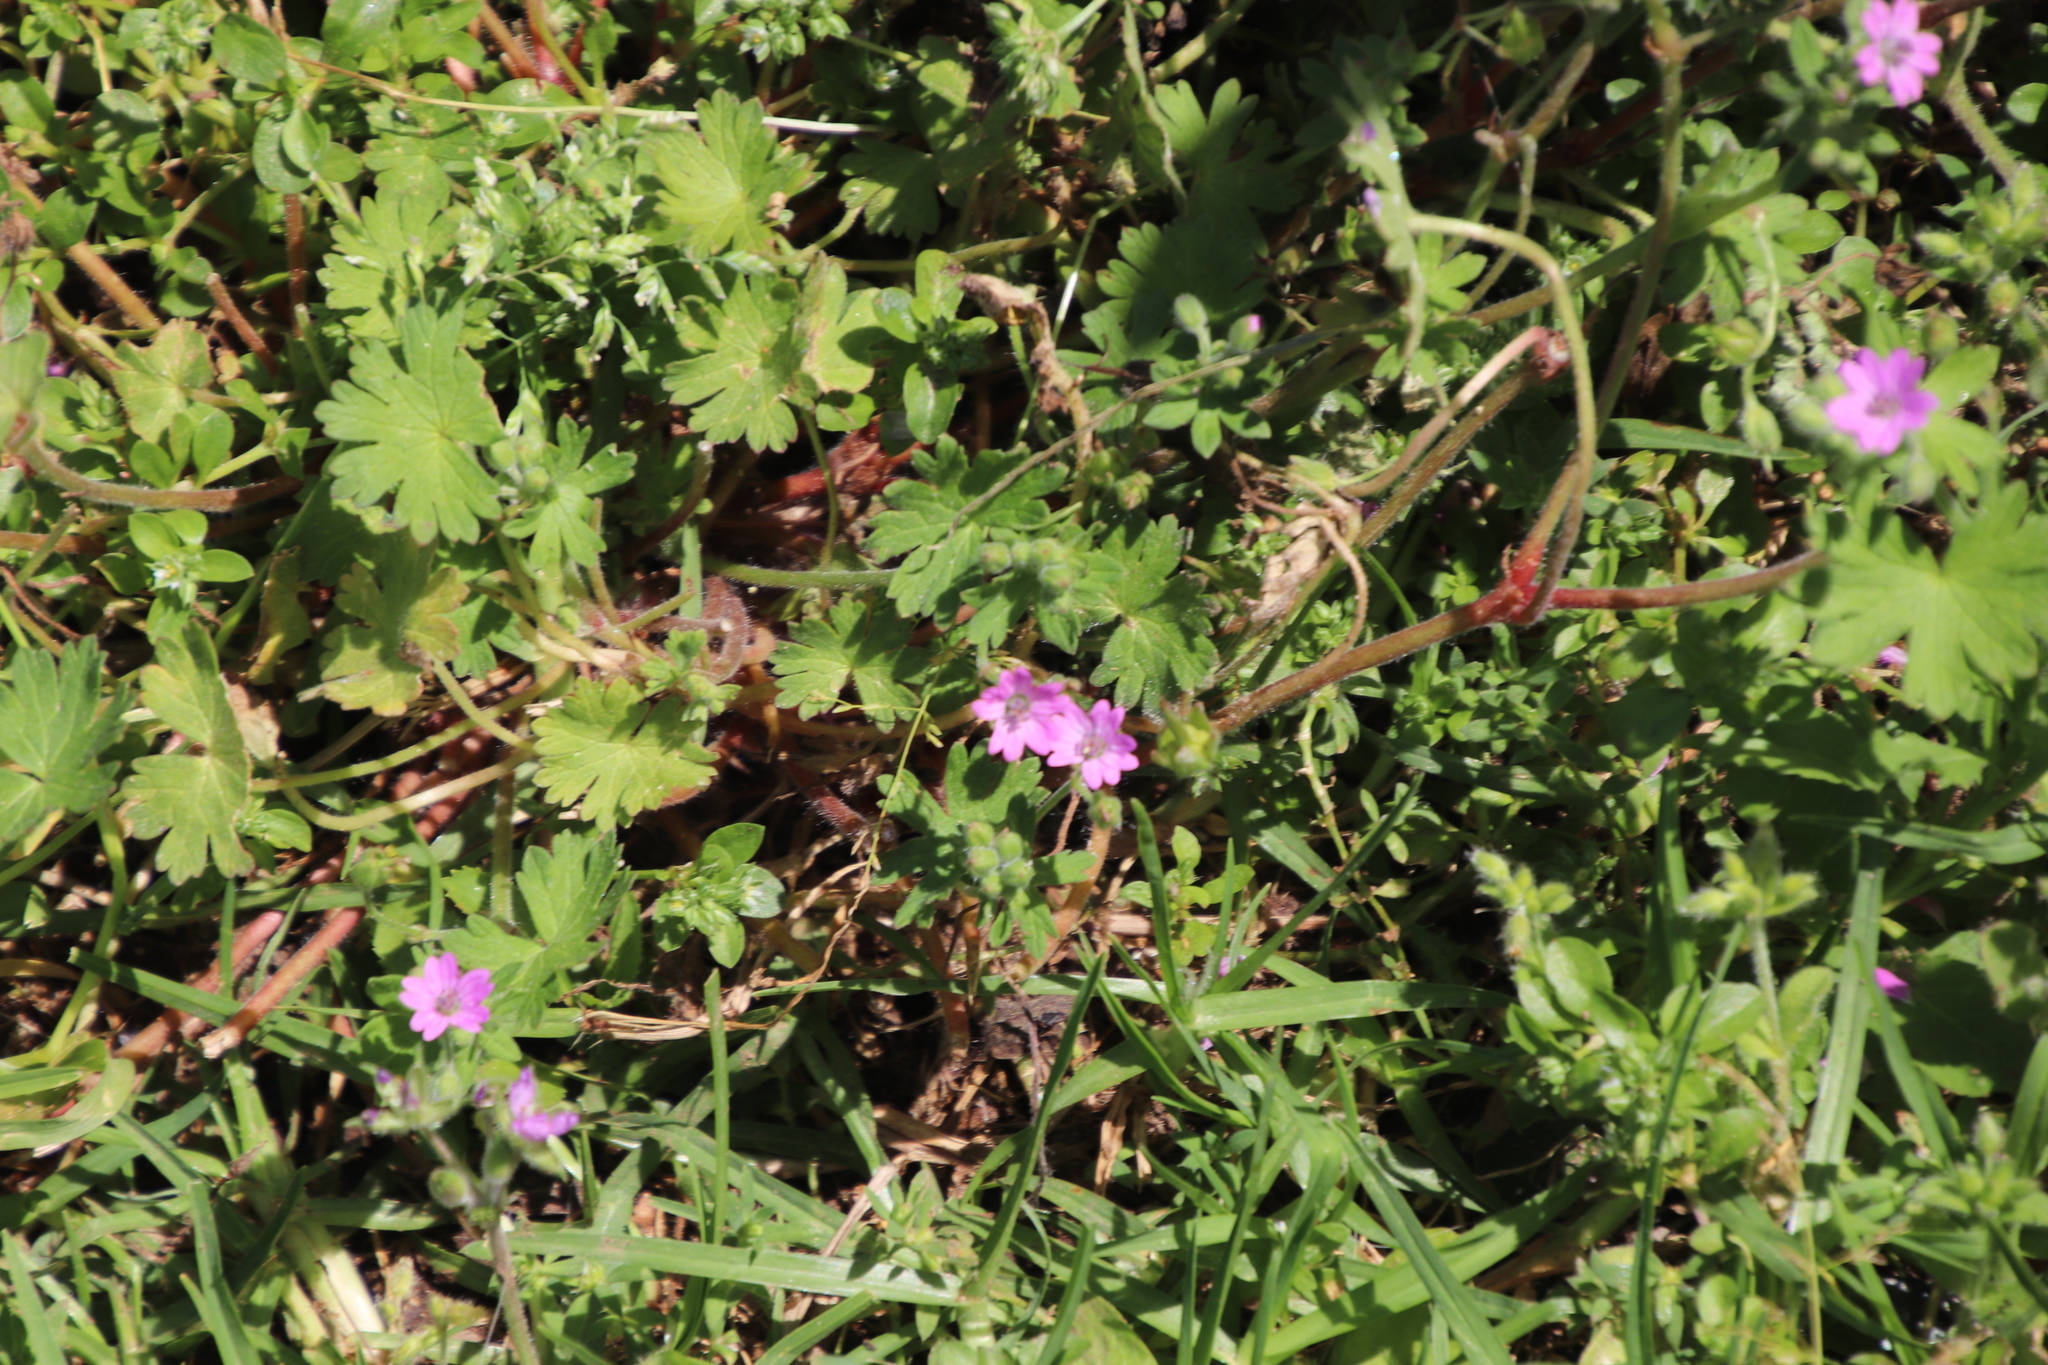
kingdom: Plantae
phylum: Tracheophyta
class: Magnoliopsida
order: Geraniales
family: Geraniaceae
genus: Geranium
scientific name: Geranium molle
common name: Dove's-foot crane's-bill
